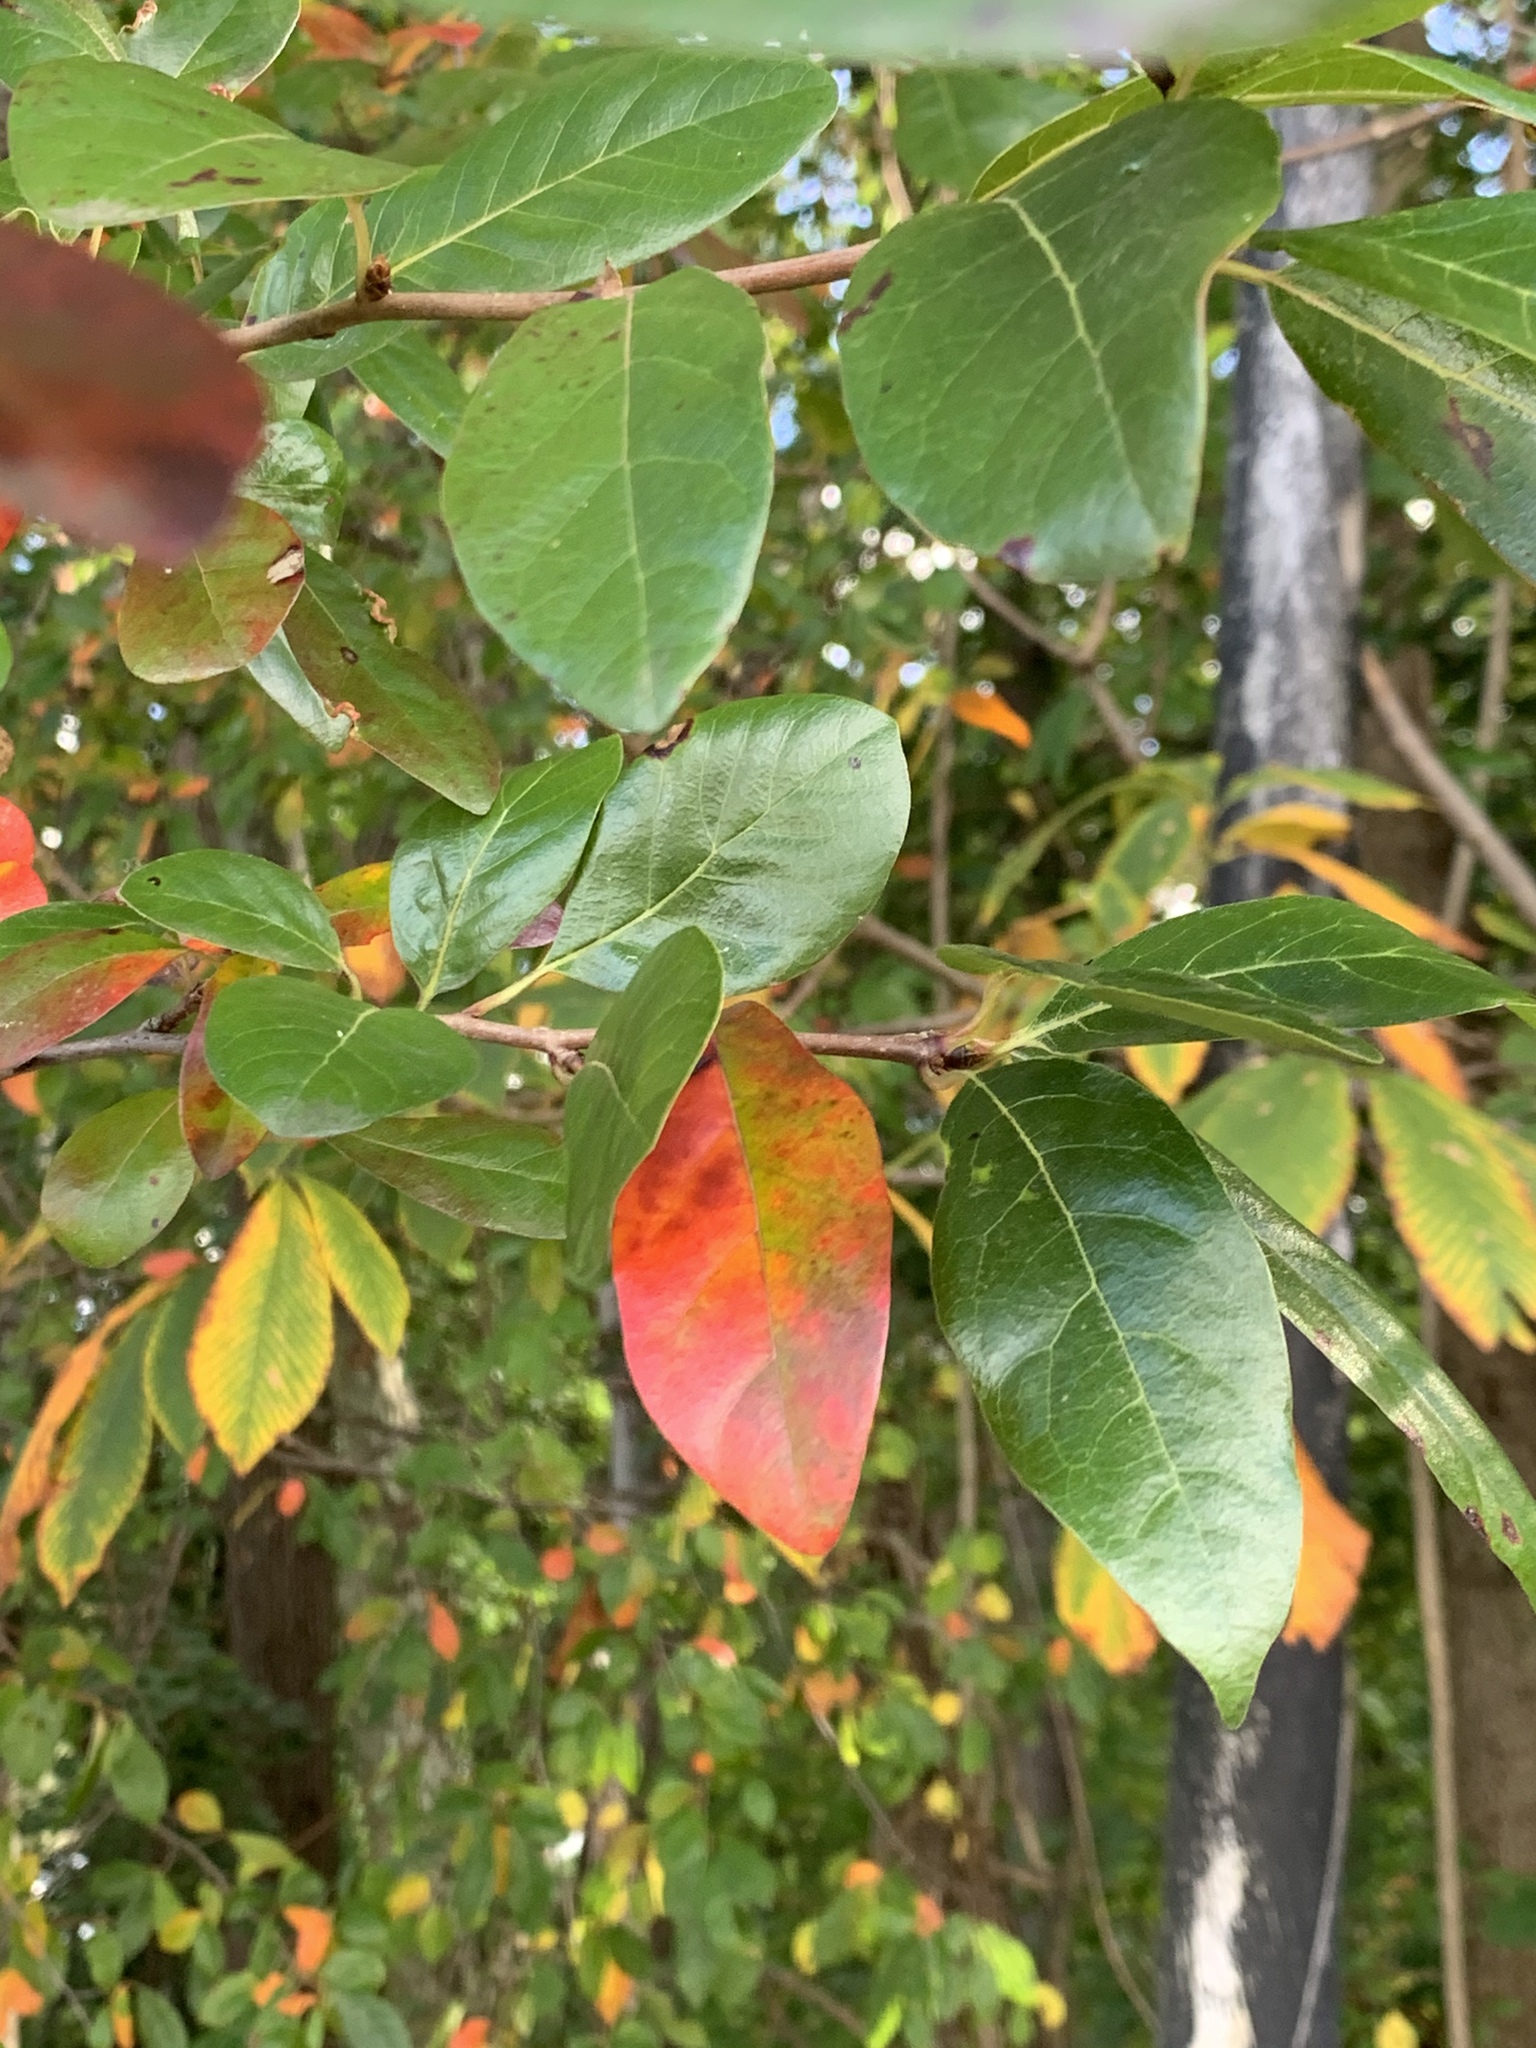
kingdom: Plantae
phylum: Tracheophyta
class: Magnoliopsida
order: Cornales
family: Nyssaceae
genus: Nyssa
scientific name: Nyssa sylvatica
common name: Black tupelo
